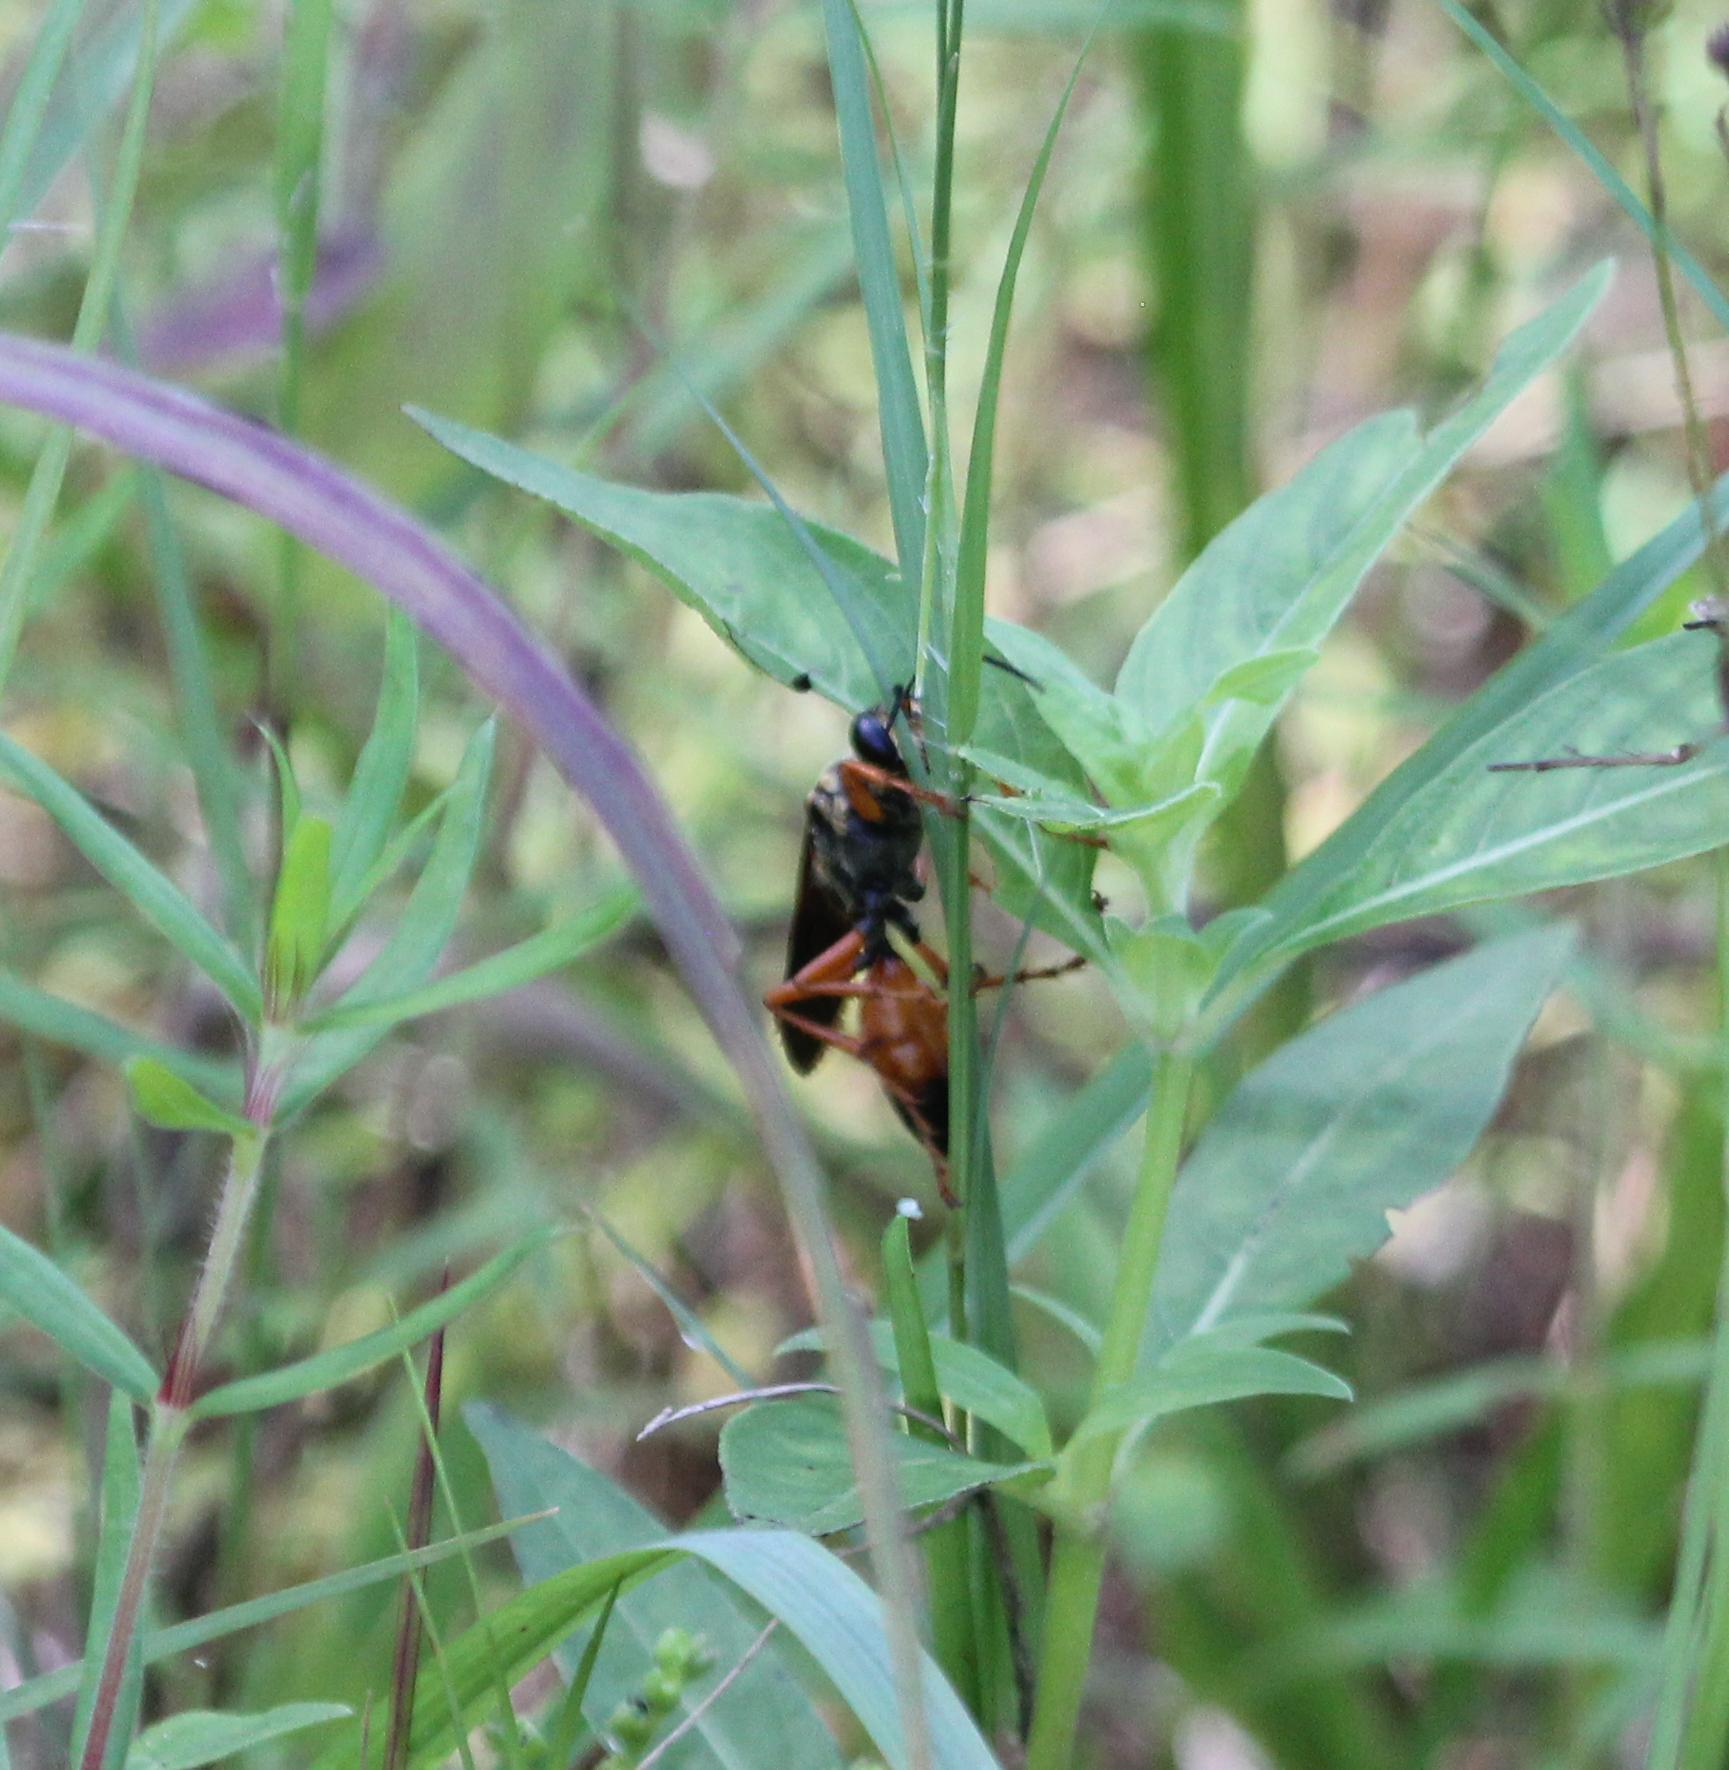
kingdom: Animalia
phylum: Arthropoda
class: Insecta
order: Hymenoptera
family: Sphecidae
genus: Sphex
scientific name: Sphex ichneumoneus
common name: Great golden digger wasp
